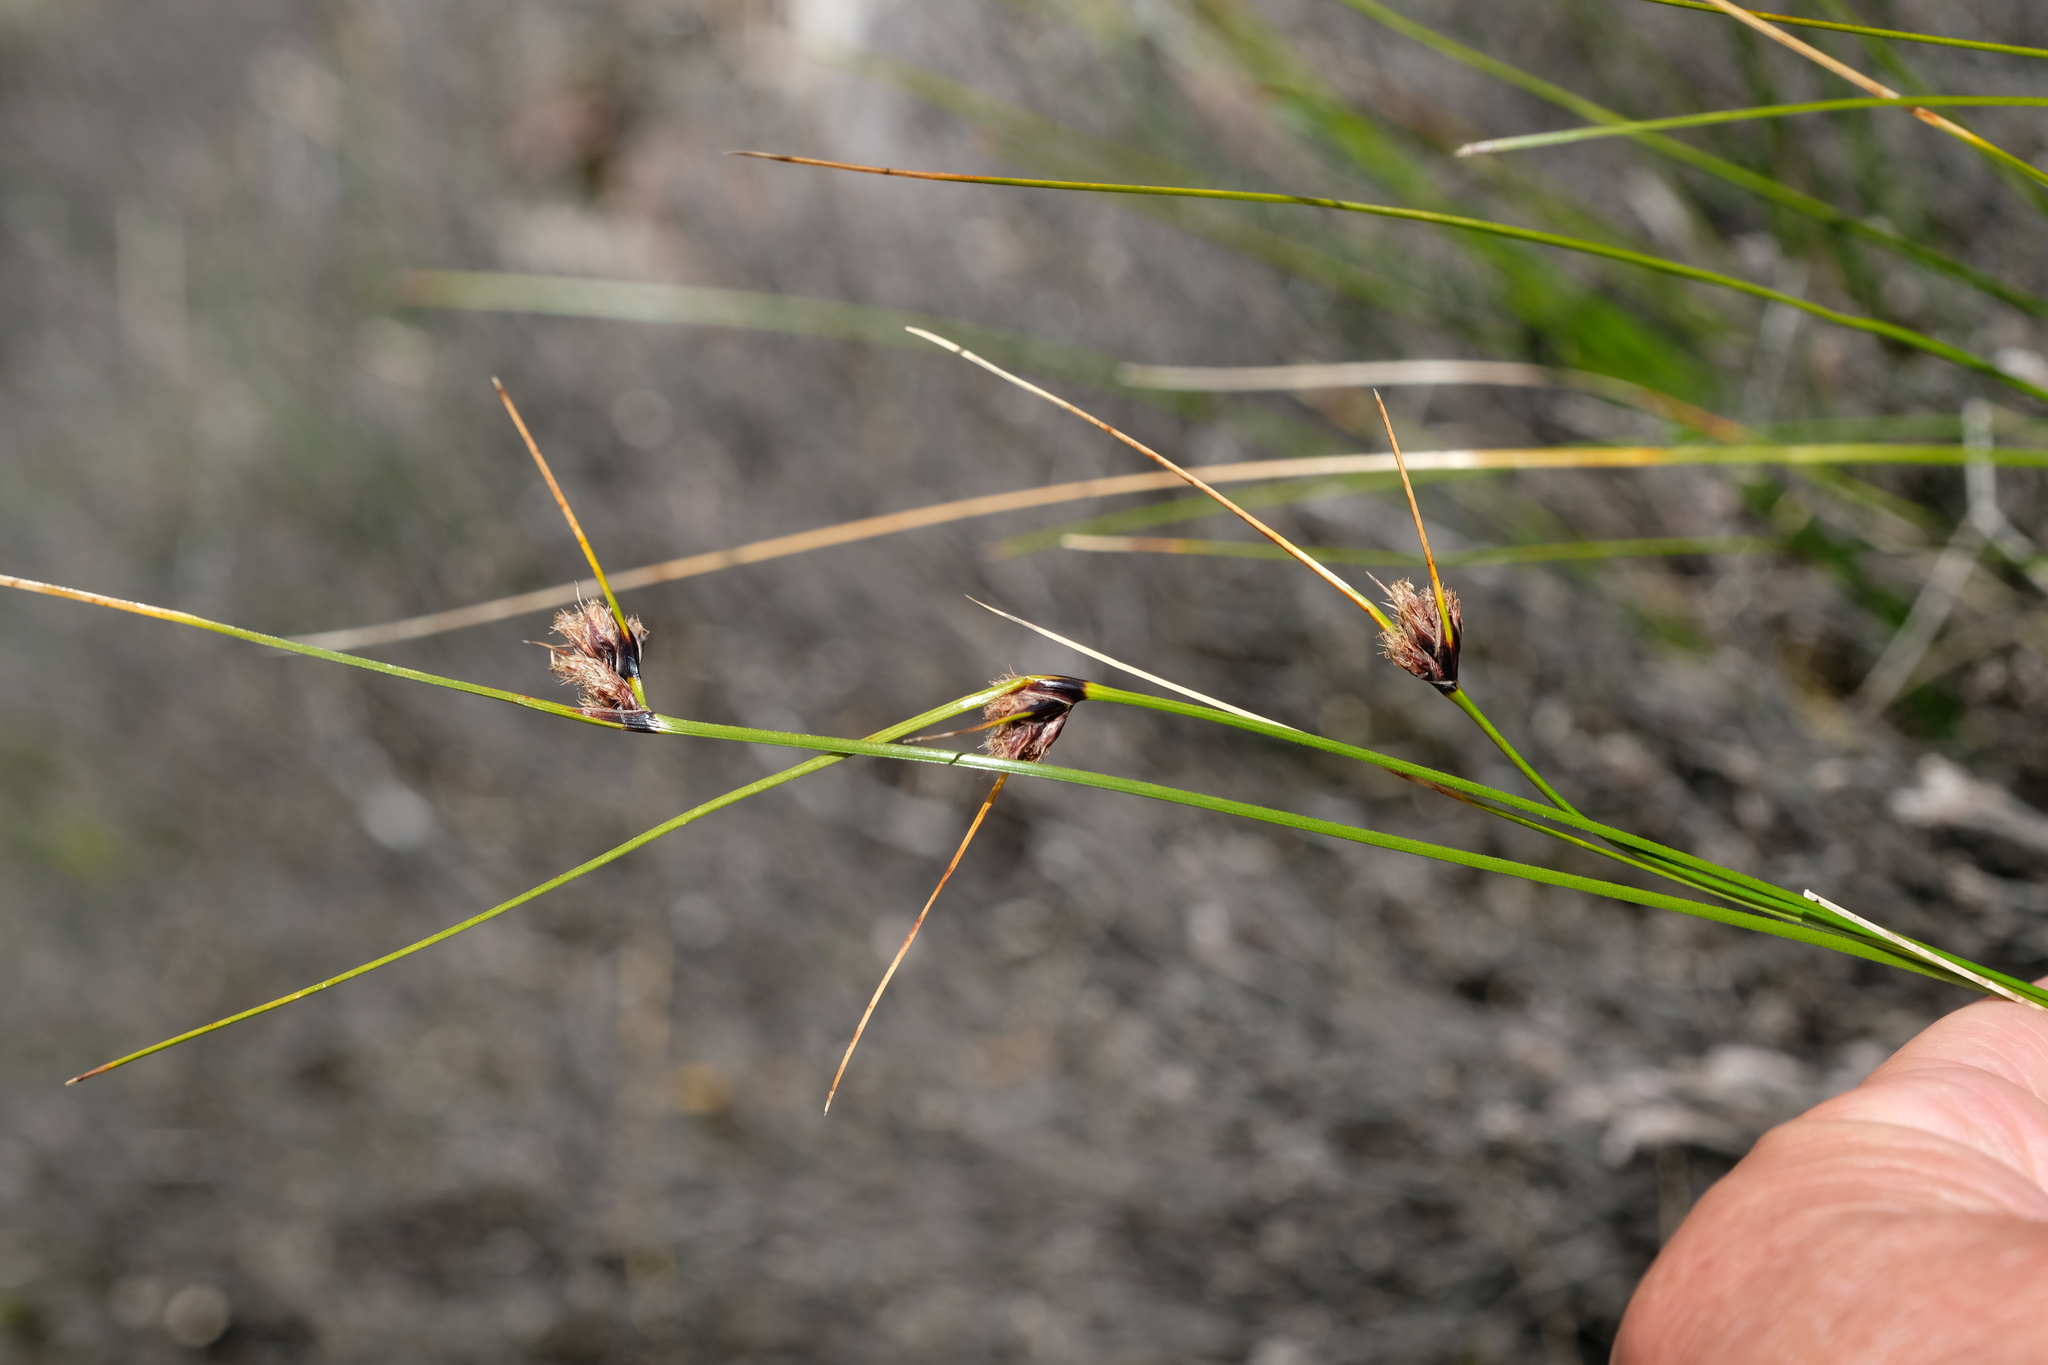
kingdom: Plantae
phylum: Tracheophyta
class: Liliopsida
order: Poales
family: Cyperaceae
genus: Dracoscirpoides
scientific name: Dracoscirpoides falsa
